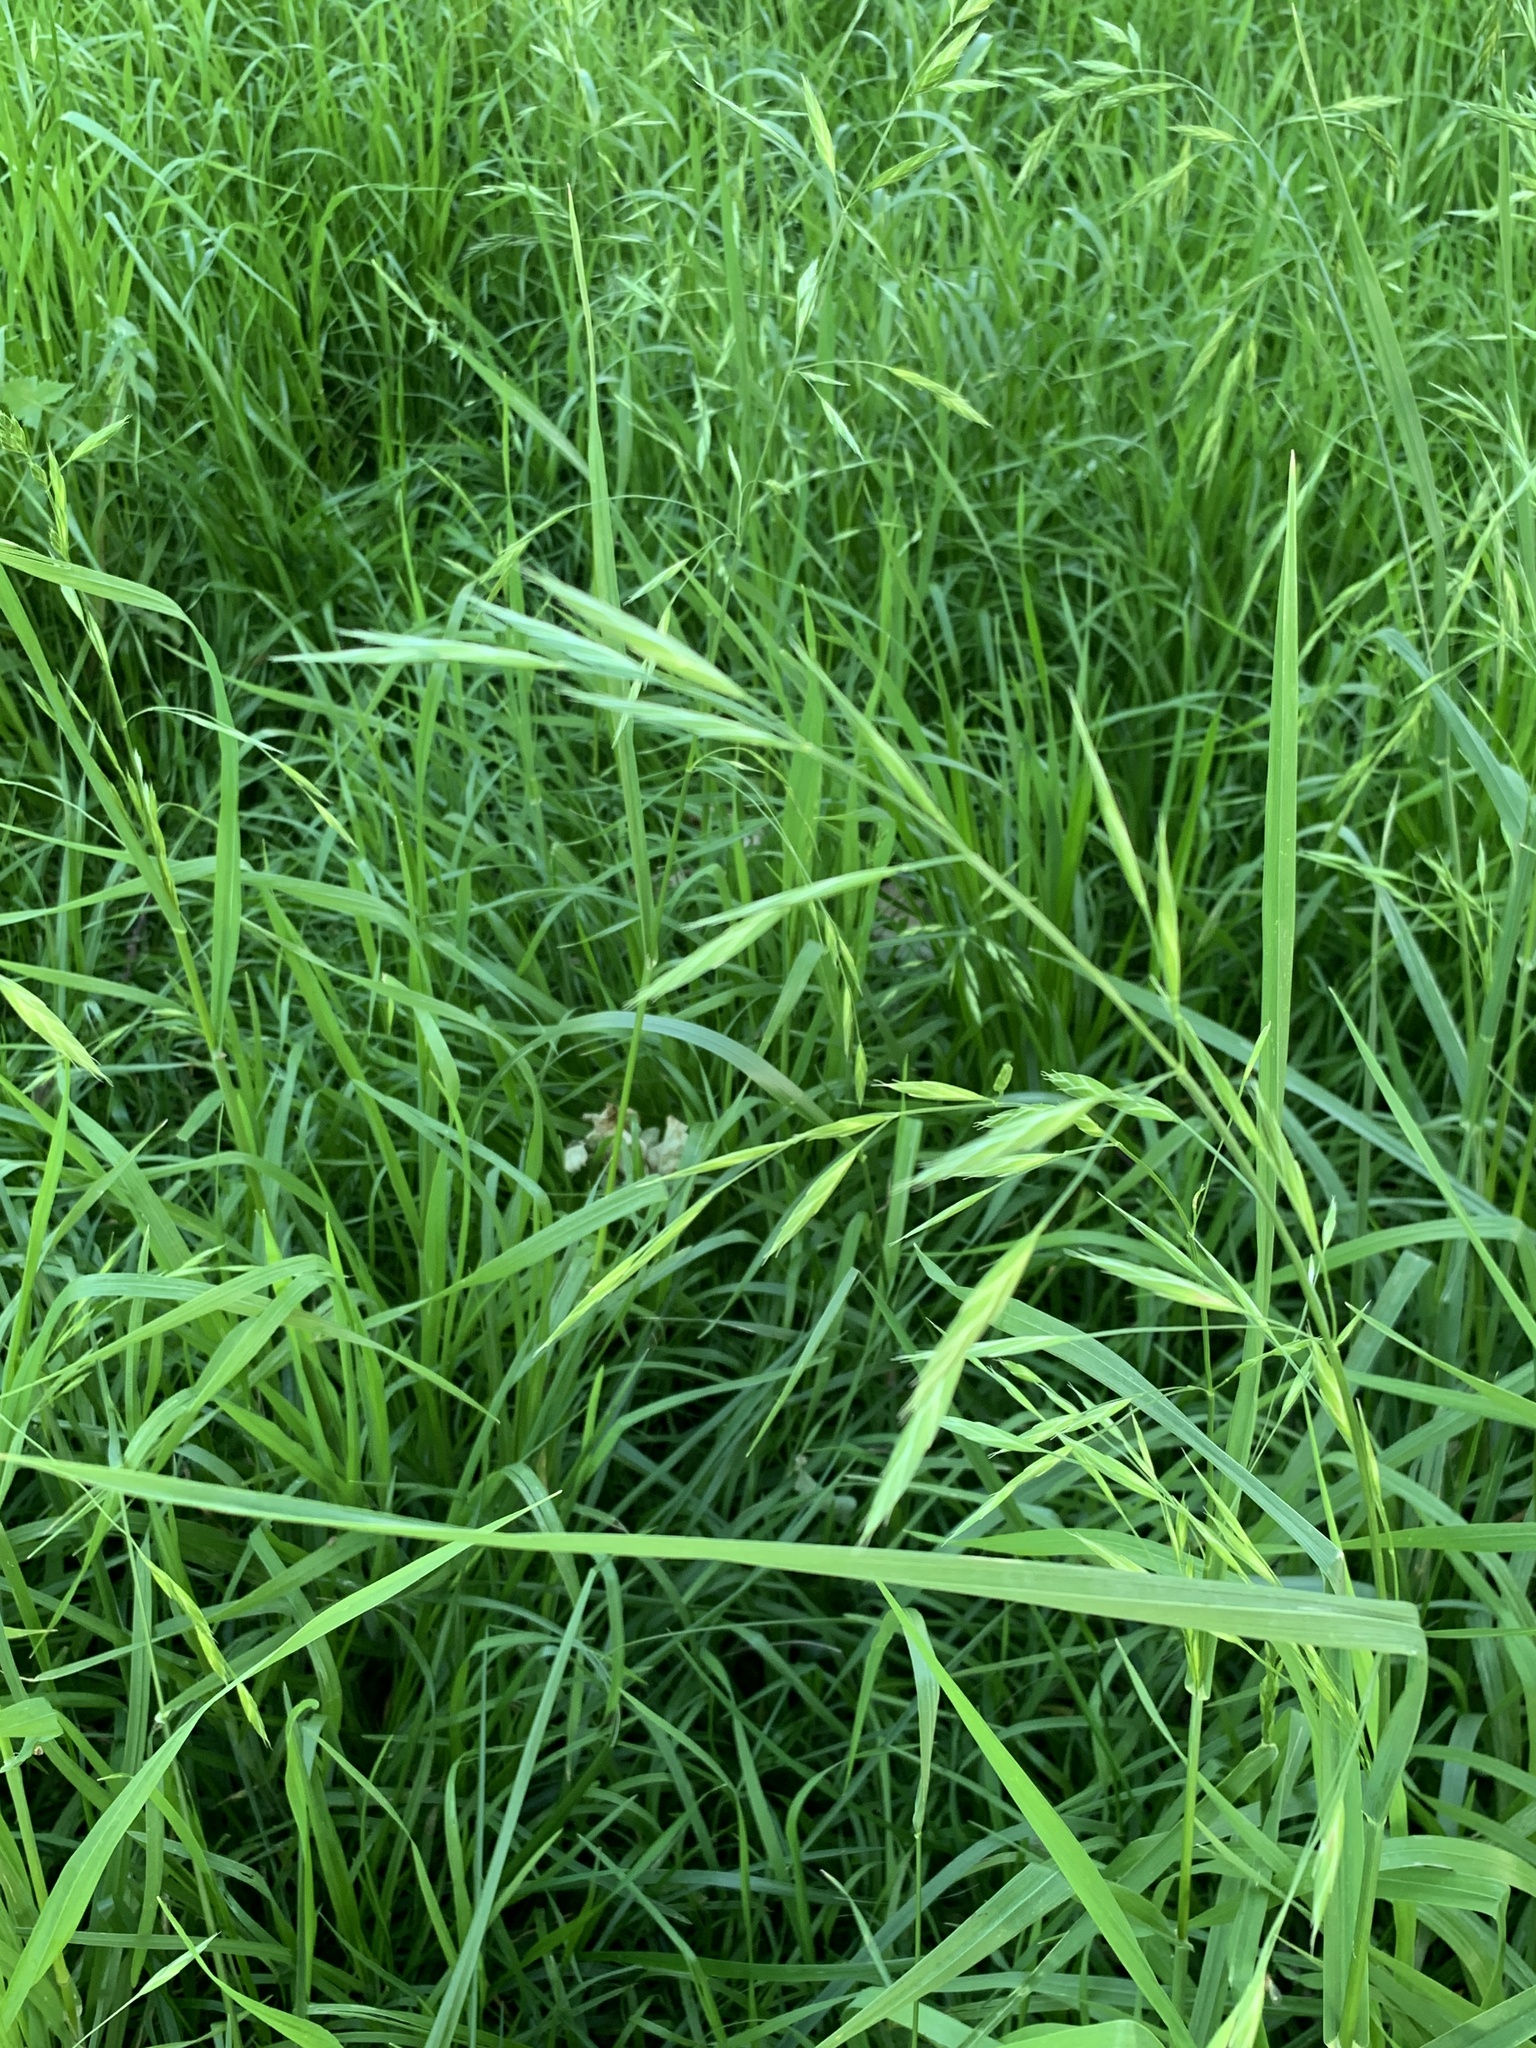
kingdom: Plantae
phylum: Tracheophyta
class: Liliopsida
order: Poales
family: Poaceae
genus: Bromus
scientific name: Bromus catharticus
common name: Rescuegrass
